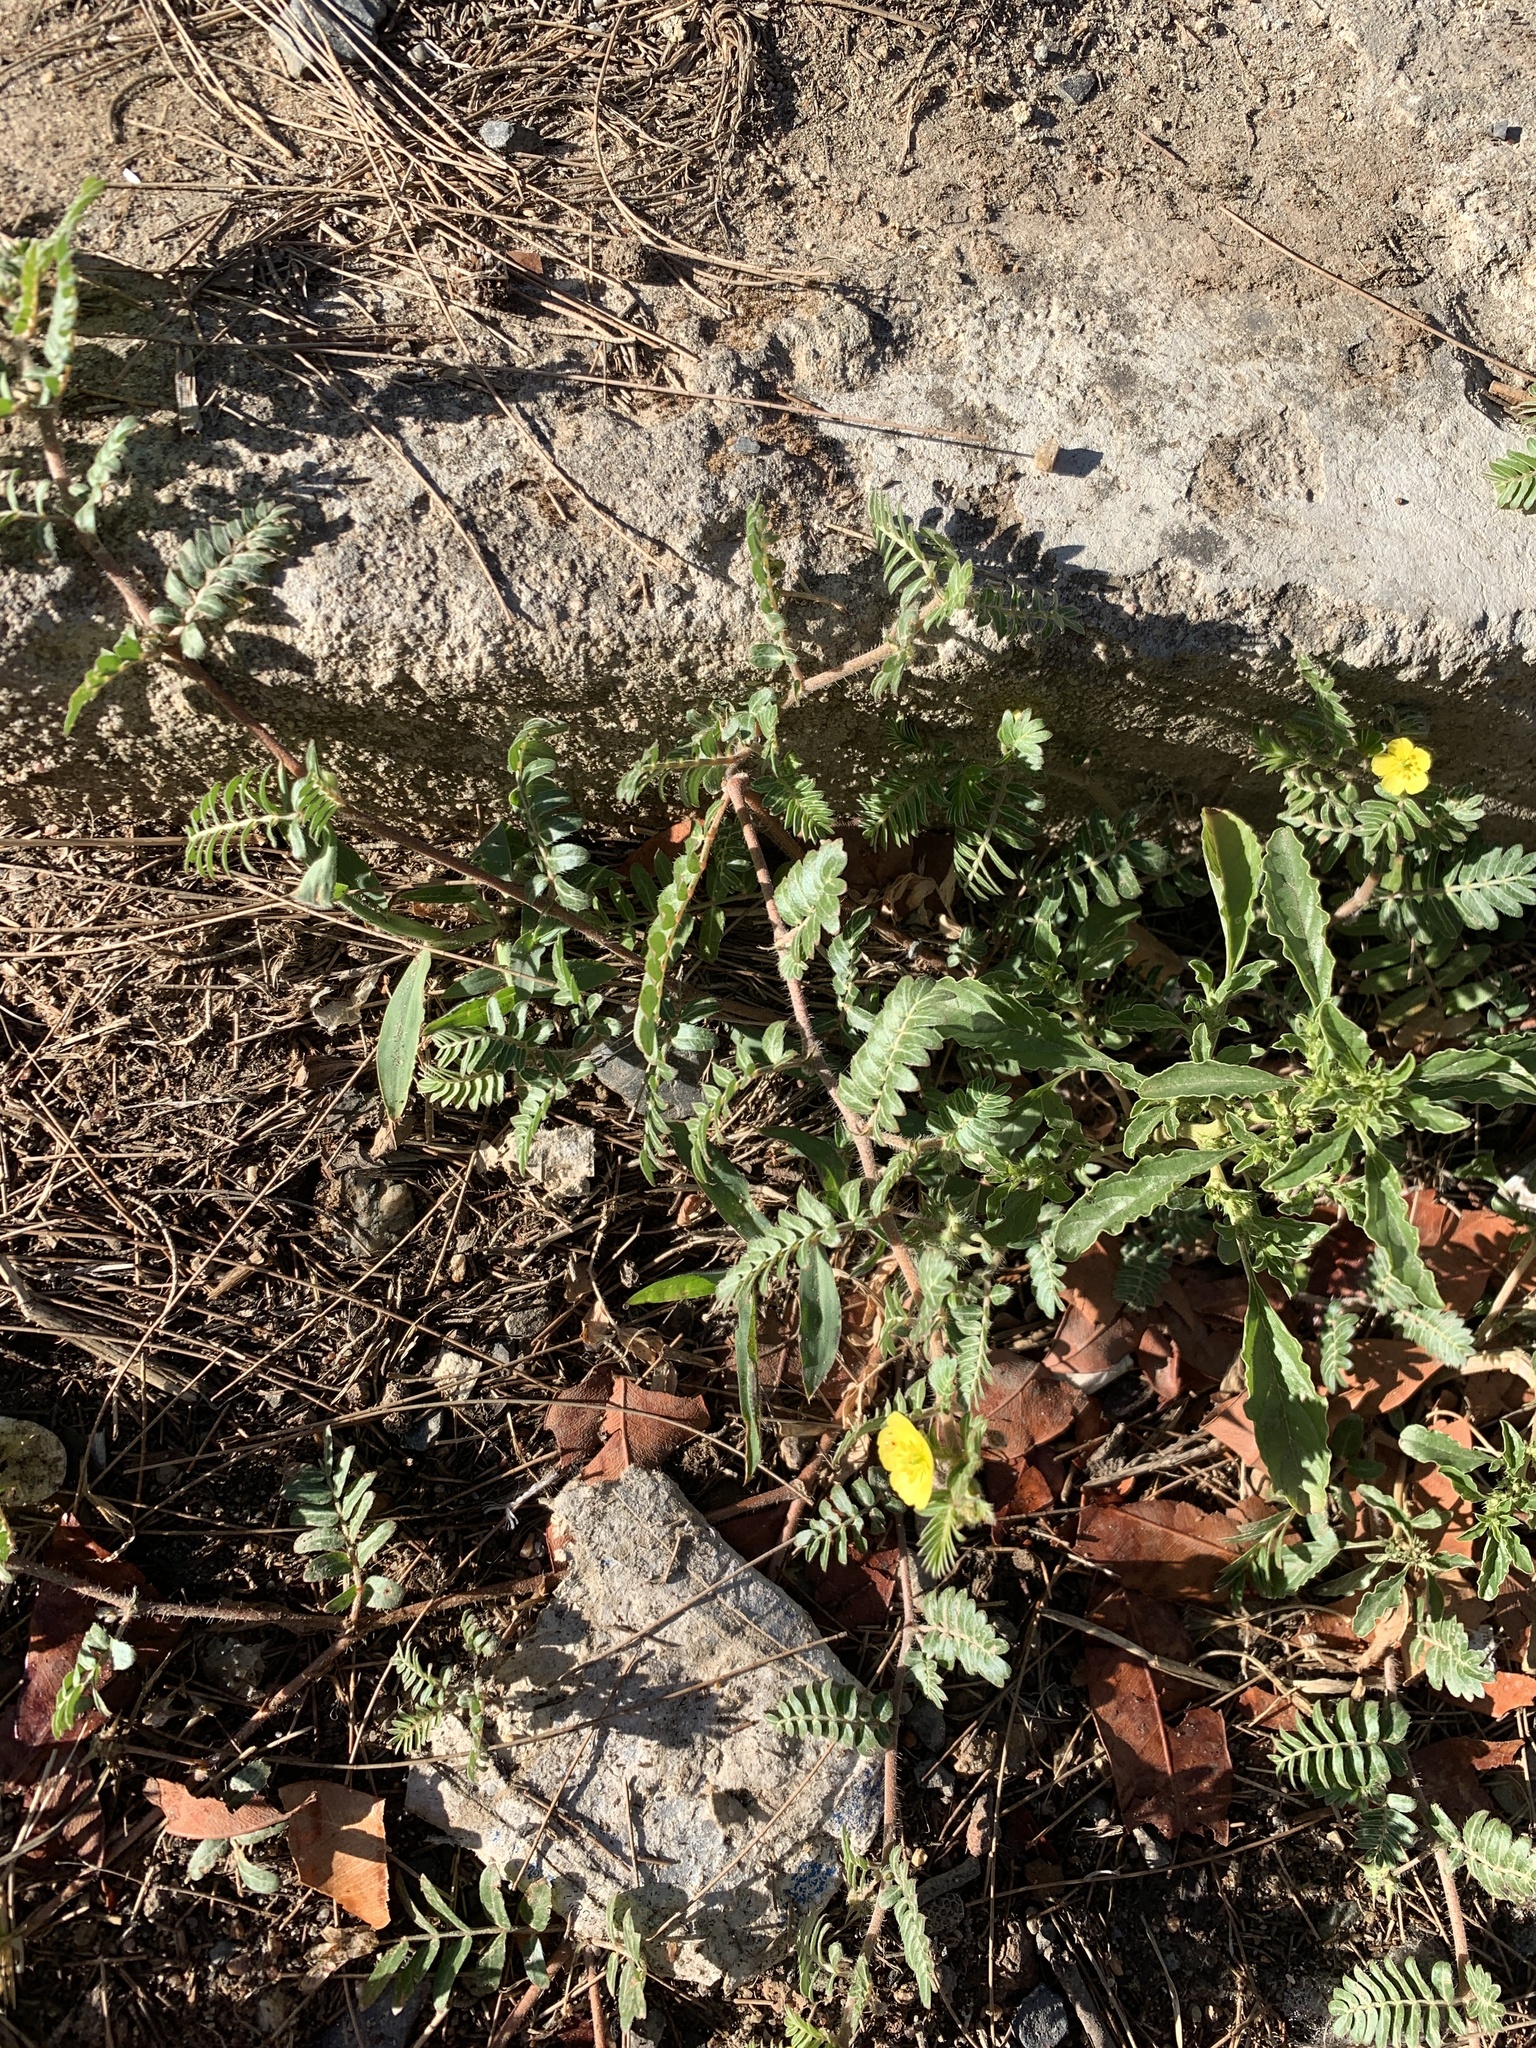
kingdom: Plantae
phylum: Tracheophyta
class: Magnoliopsida
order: Zygophyllales
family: Zygophyllaceae
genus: Tribulus
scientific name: Tribulus terrestris
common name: Puncturevine
